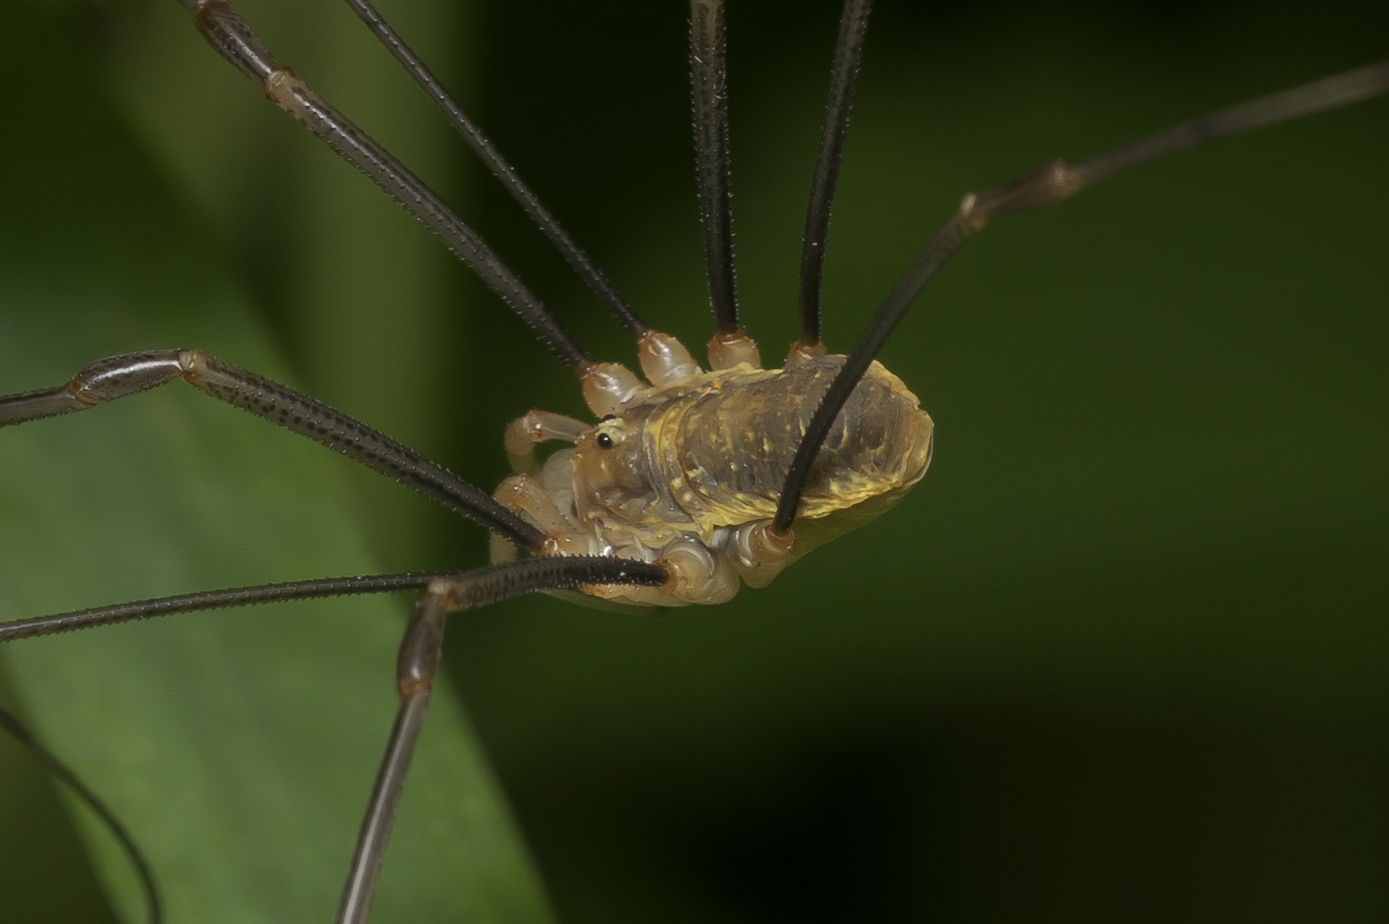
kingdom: Animalia
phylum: Arthropoda
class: Arachnida
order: Opiliones
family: Phalangiidae
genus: Opilio
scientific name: Opilio canestrinii
